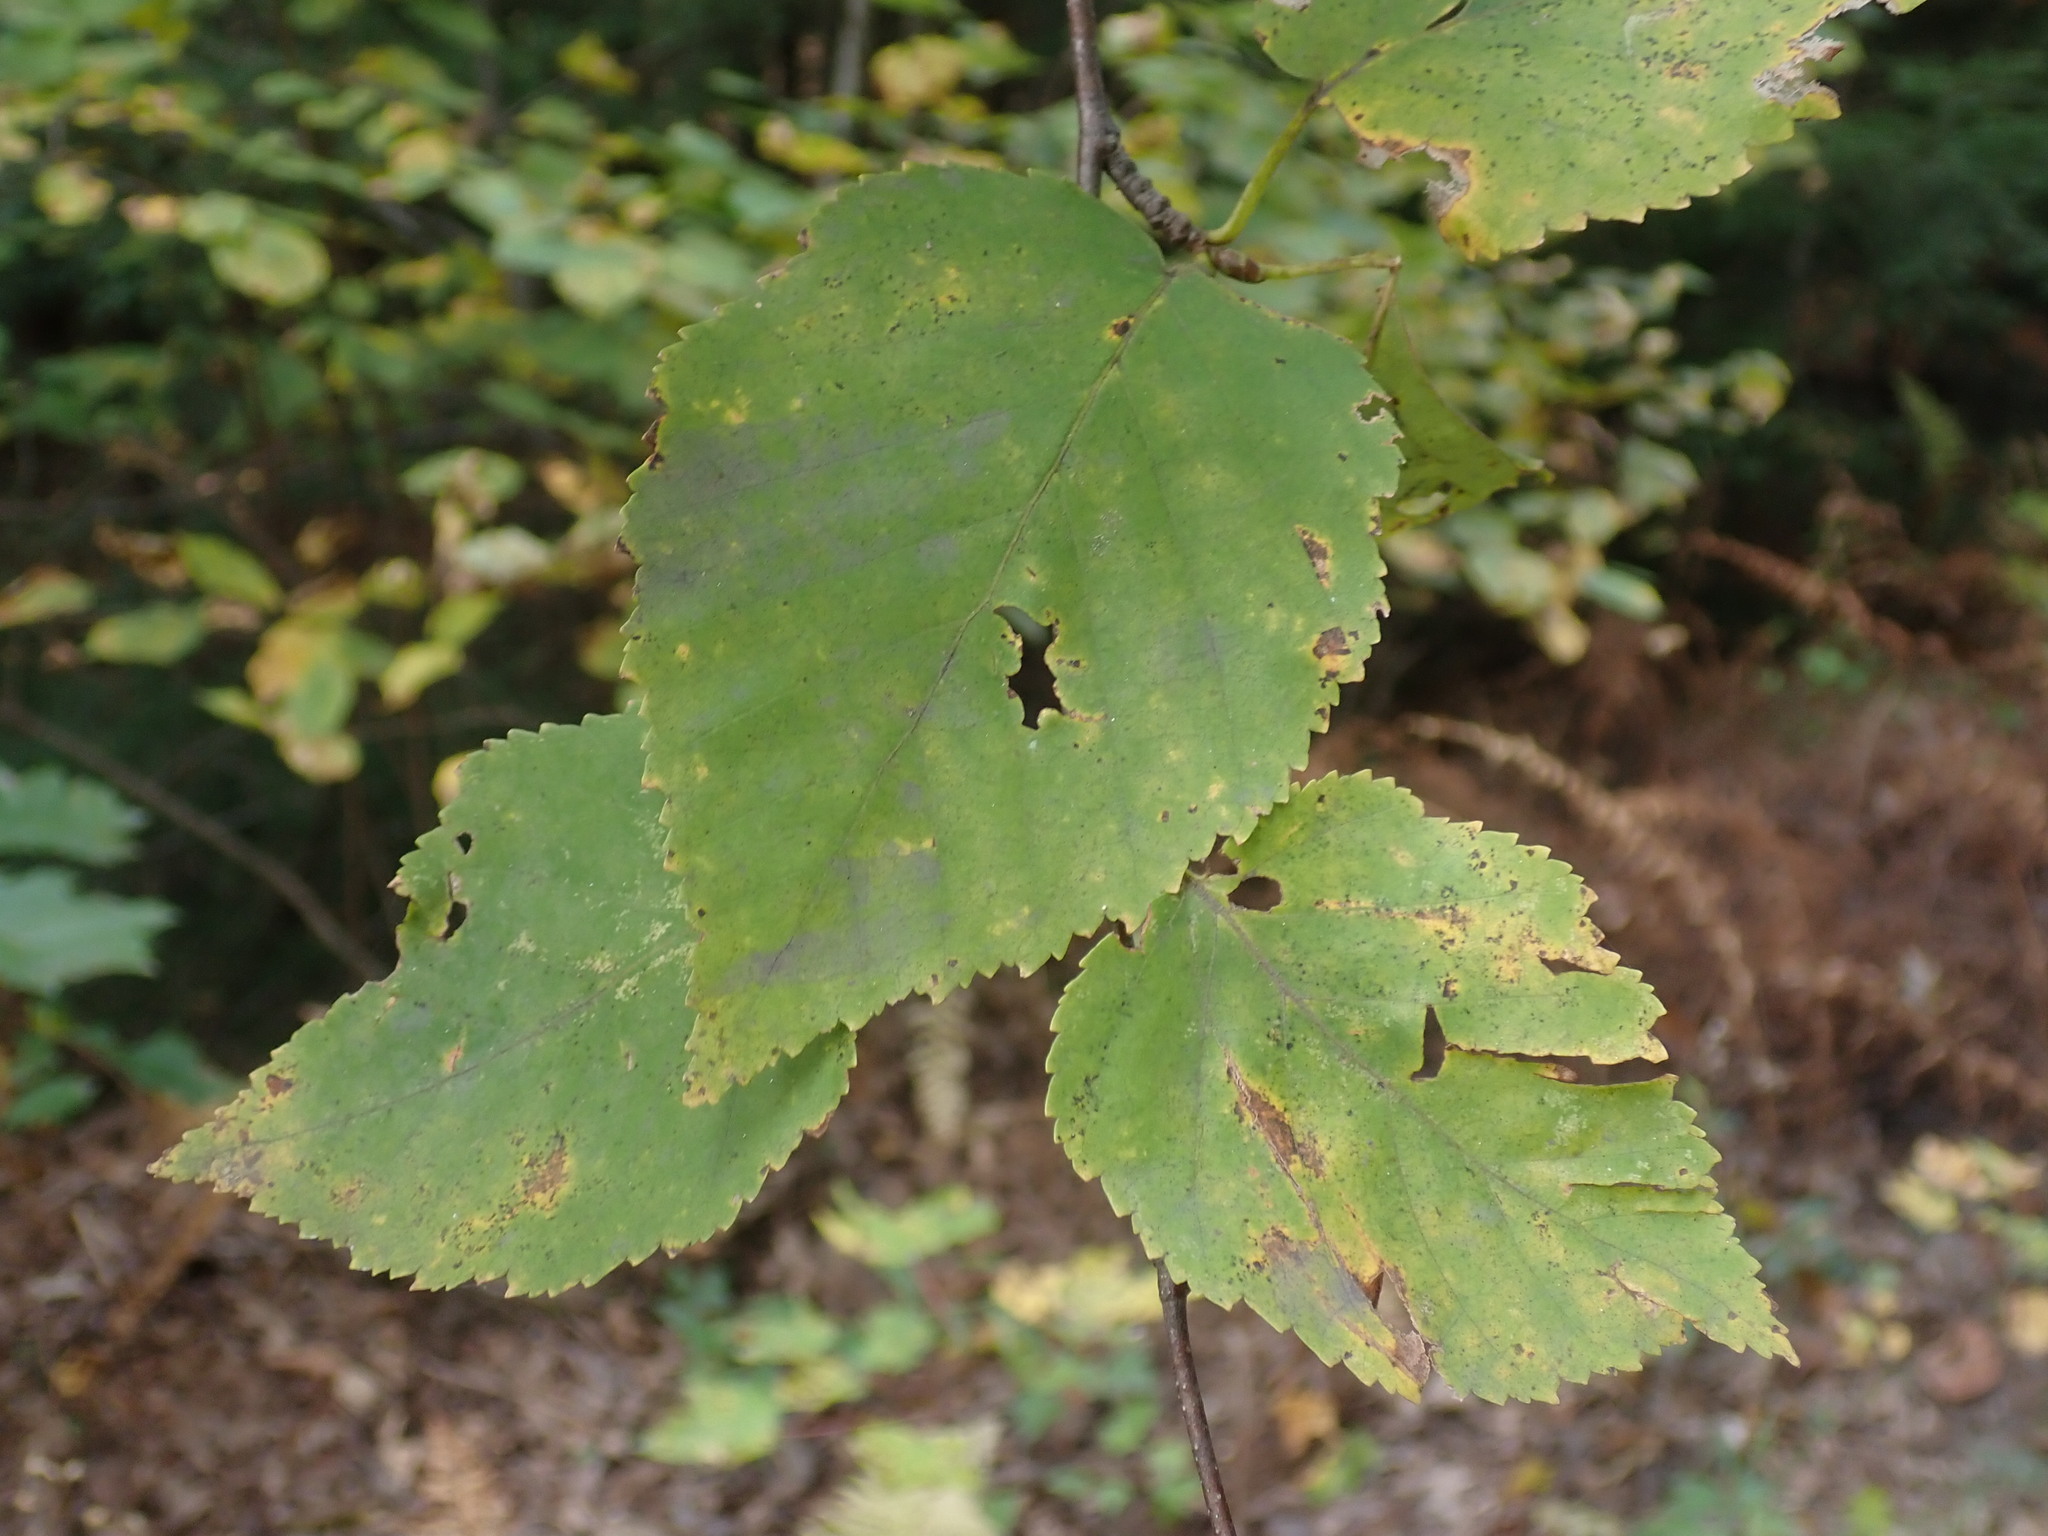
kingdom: Plantae
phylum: Tracheophyta
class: Magnoliopsida
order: Fagales
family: Betulaceae
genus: Betula
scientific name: Betula papyrifera
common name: Paper birch
